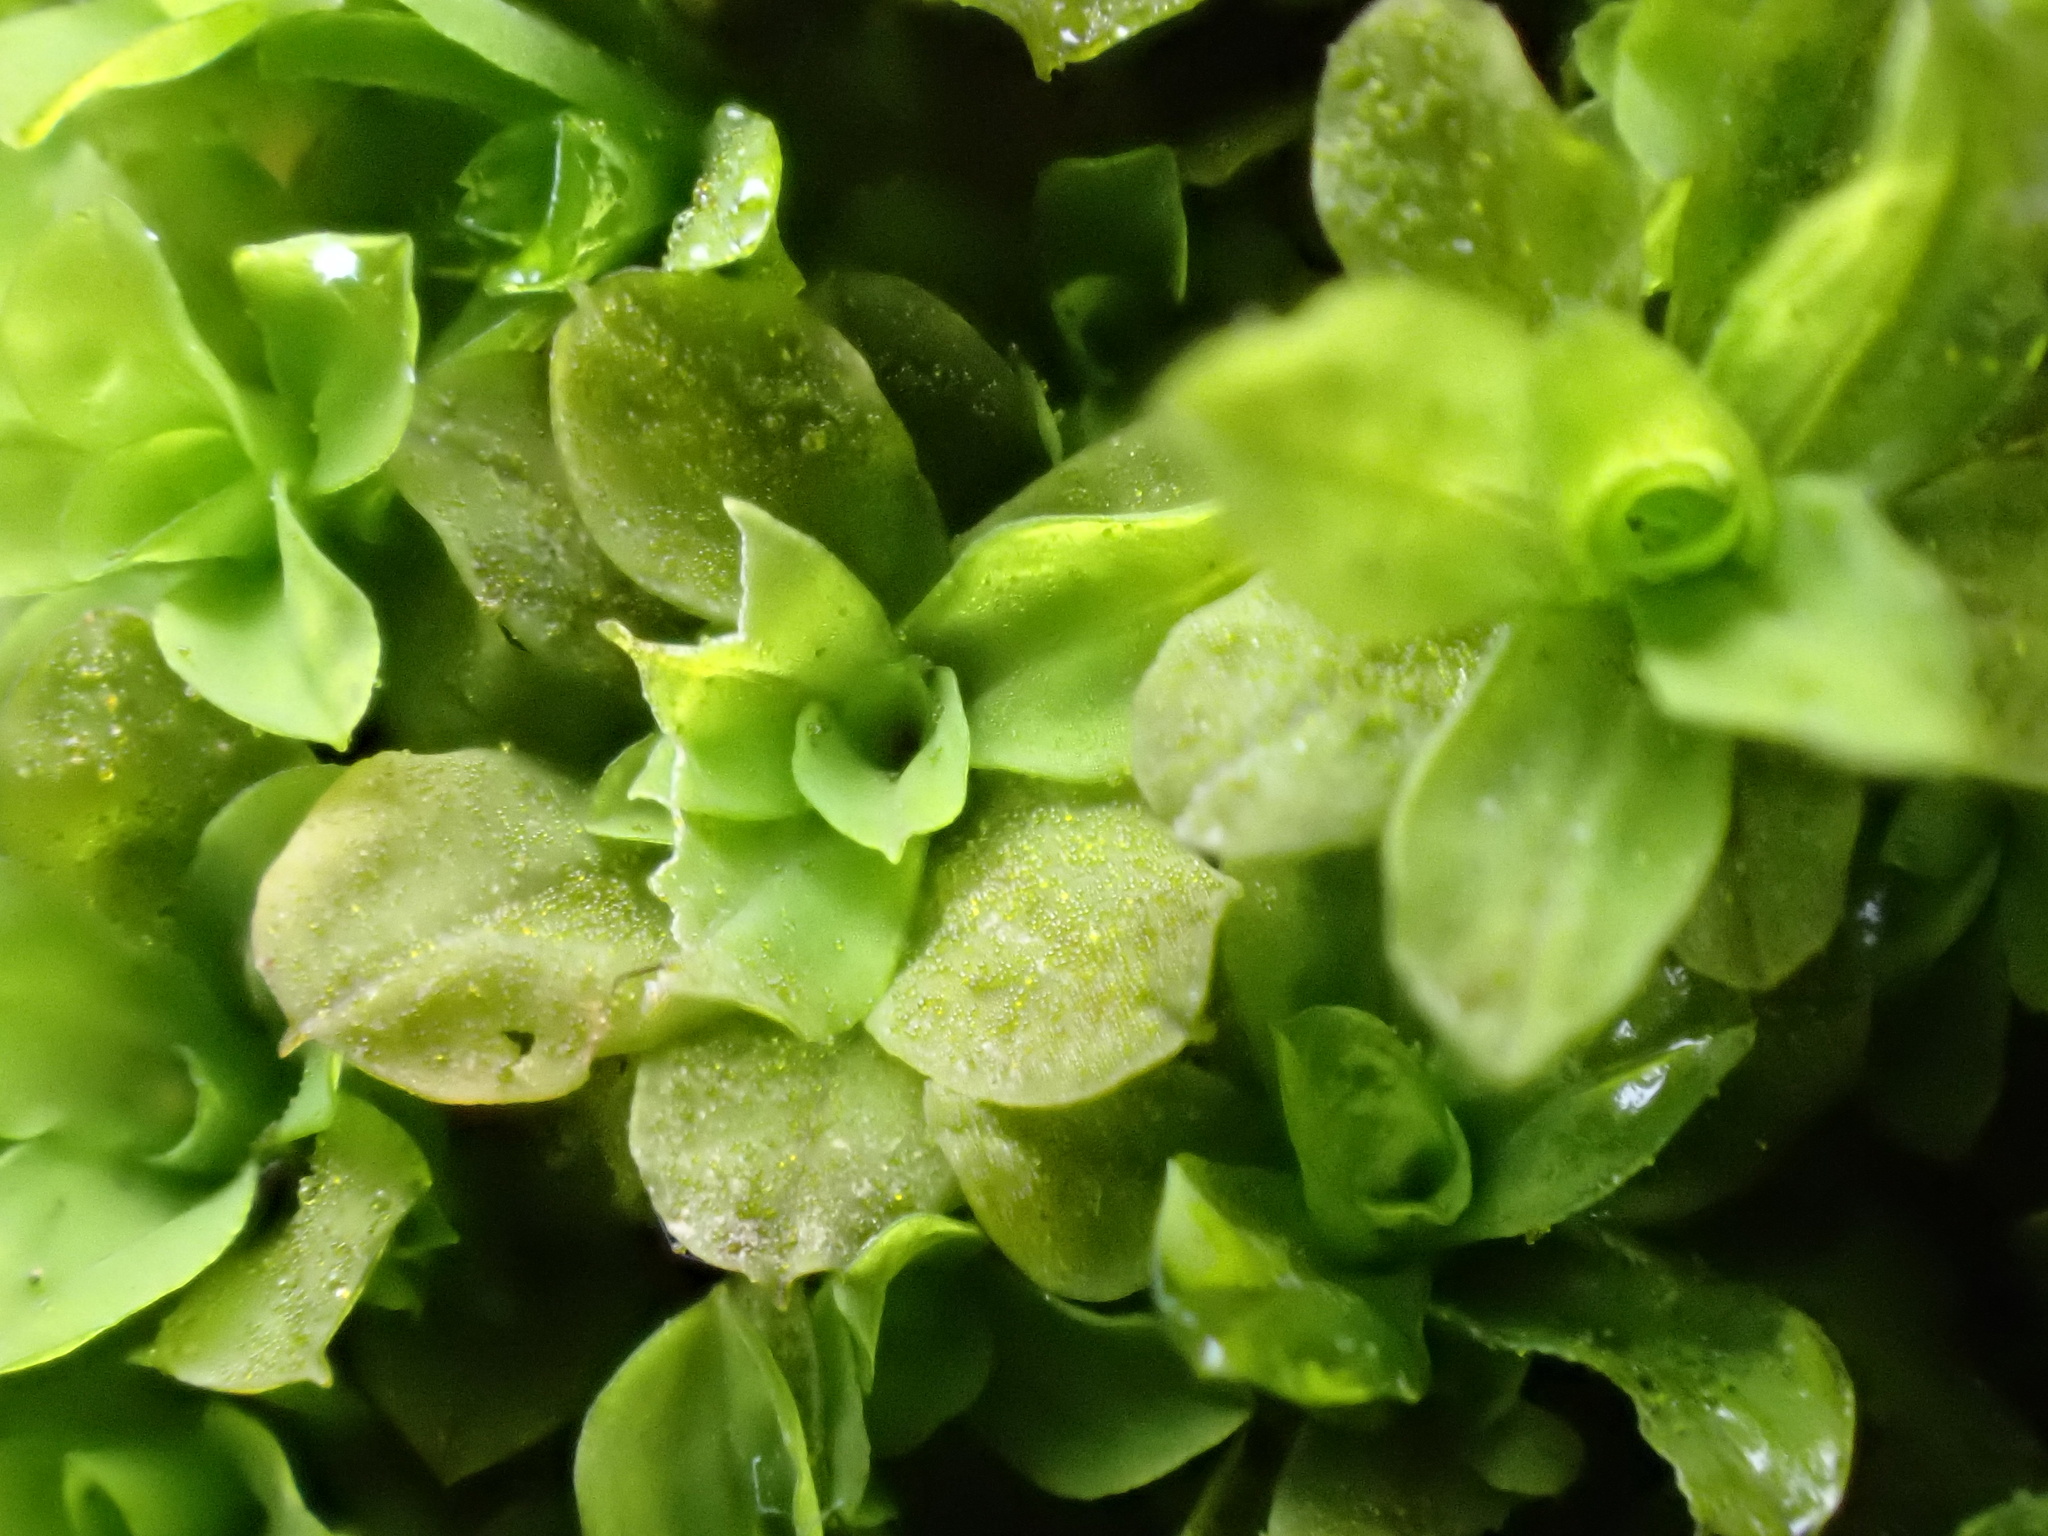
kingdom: Plantae
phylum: Bryophyta
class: Bryopsida
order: Pottiales
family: Pottiaceae
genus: Syntrichia
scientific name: Syntrichia latifolia
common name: Water screw-moss
